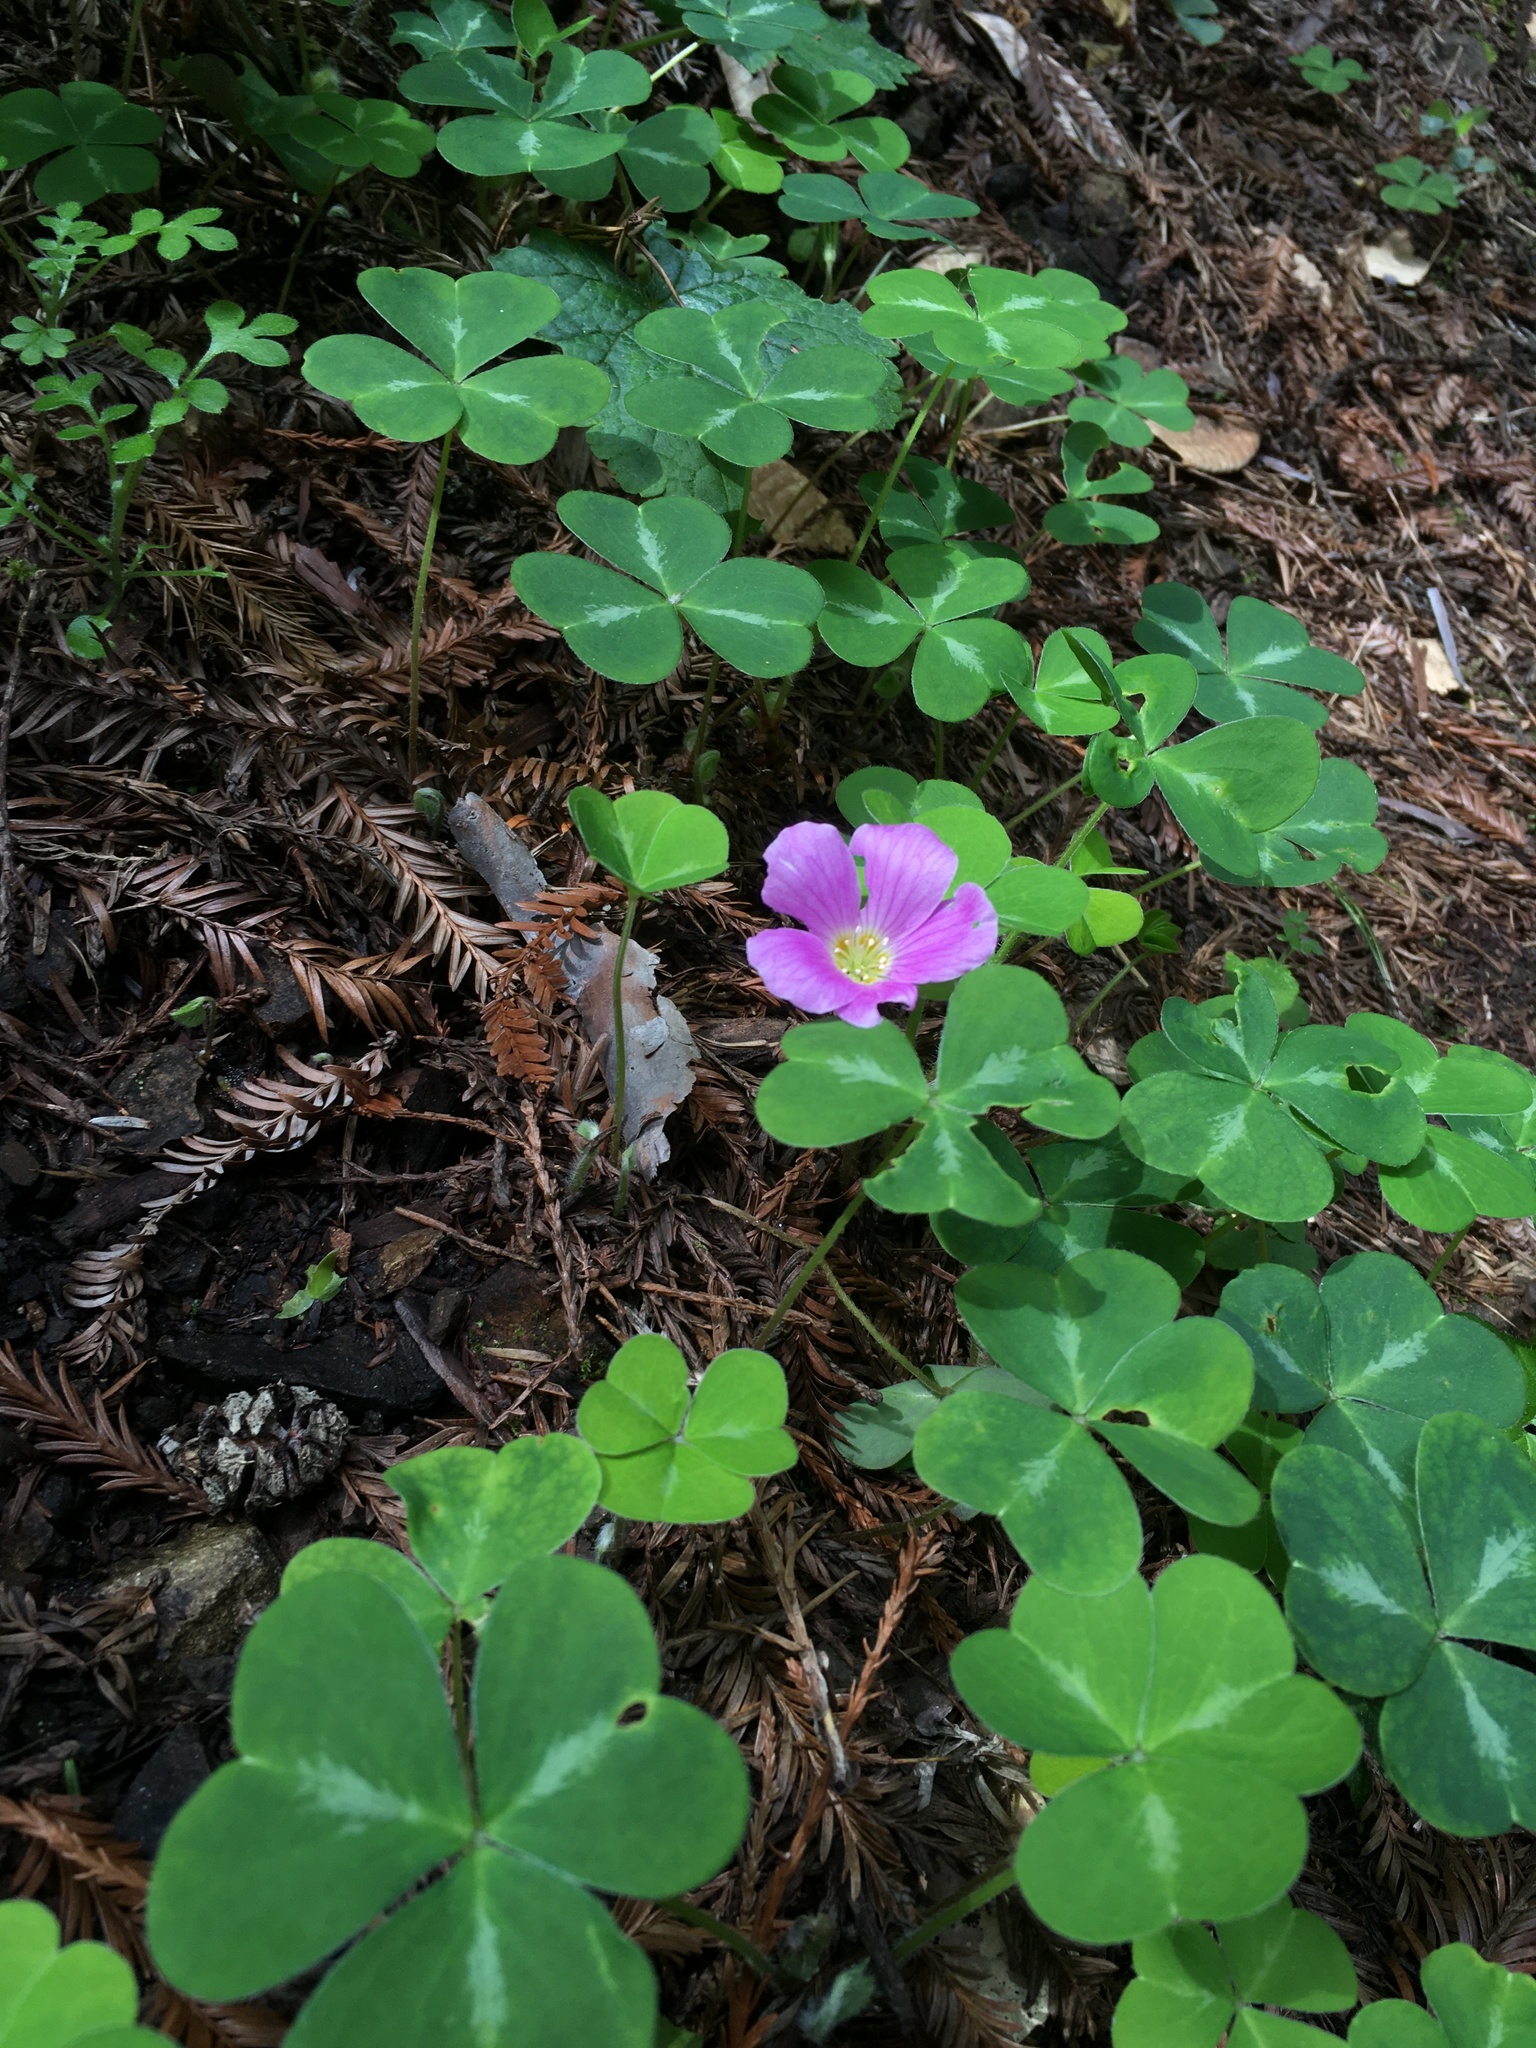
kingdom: Plantae
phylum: Tracheophyta
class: Magnoliopsida
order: Oxalidales
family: Oxalidaceae
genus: Oxalis
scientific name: Oxalis oregana
